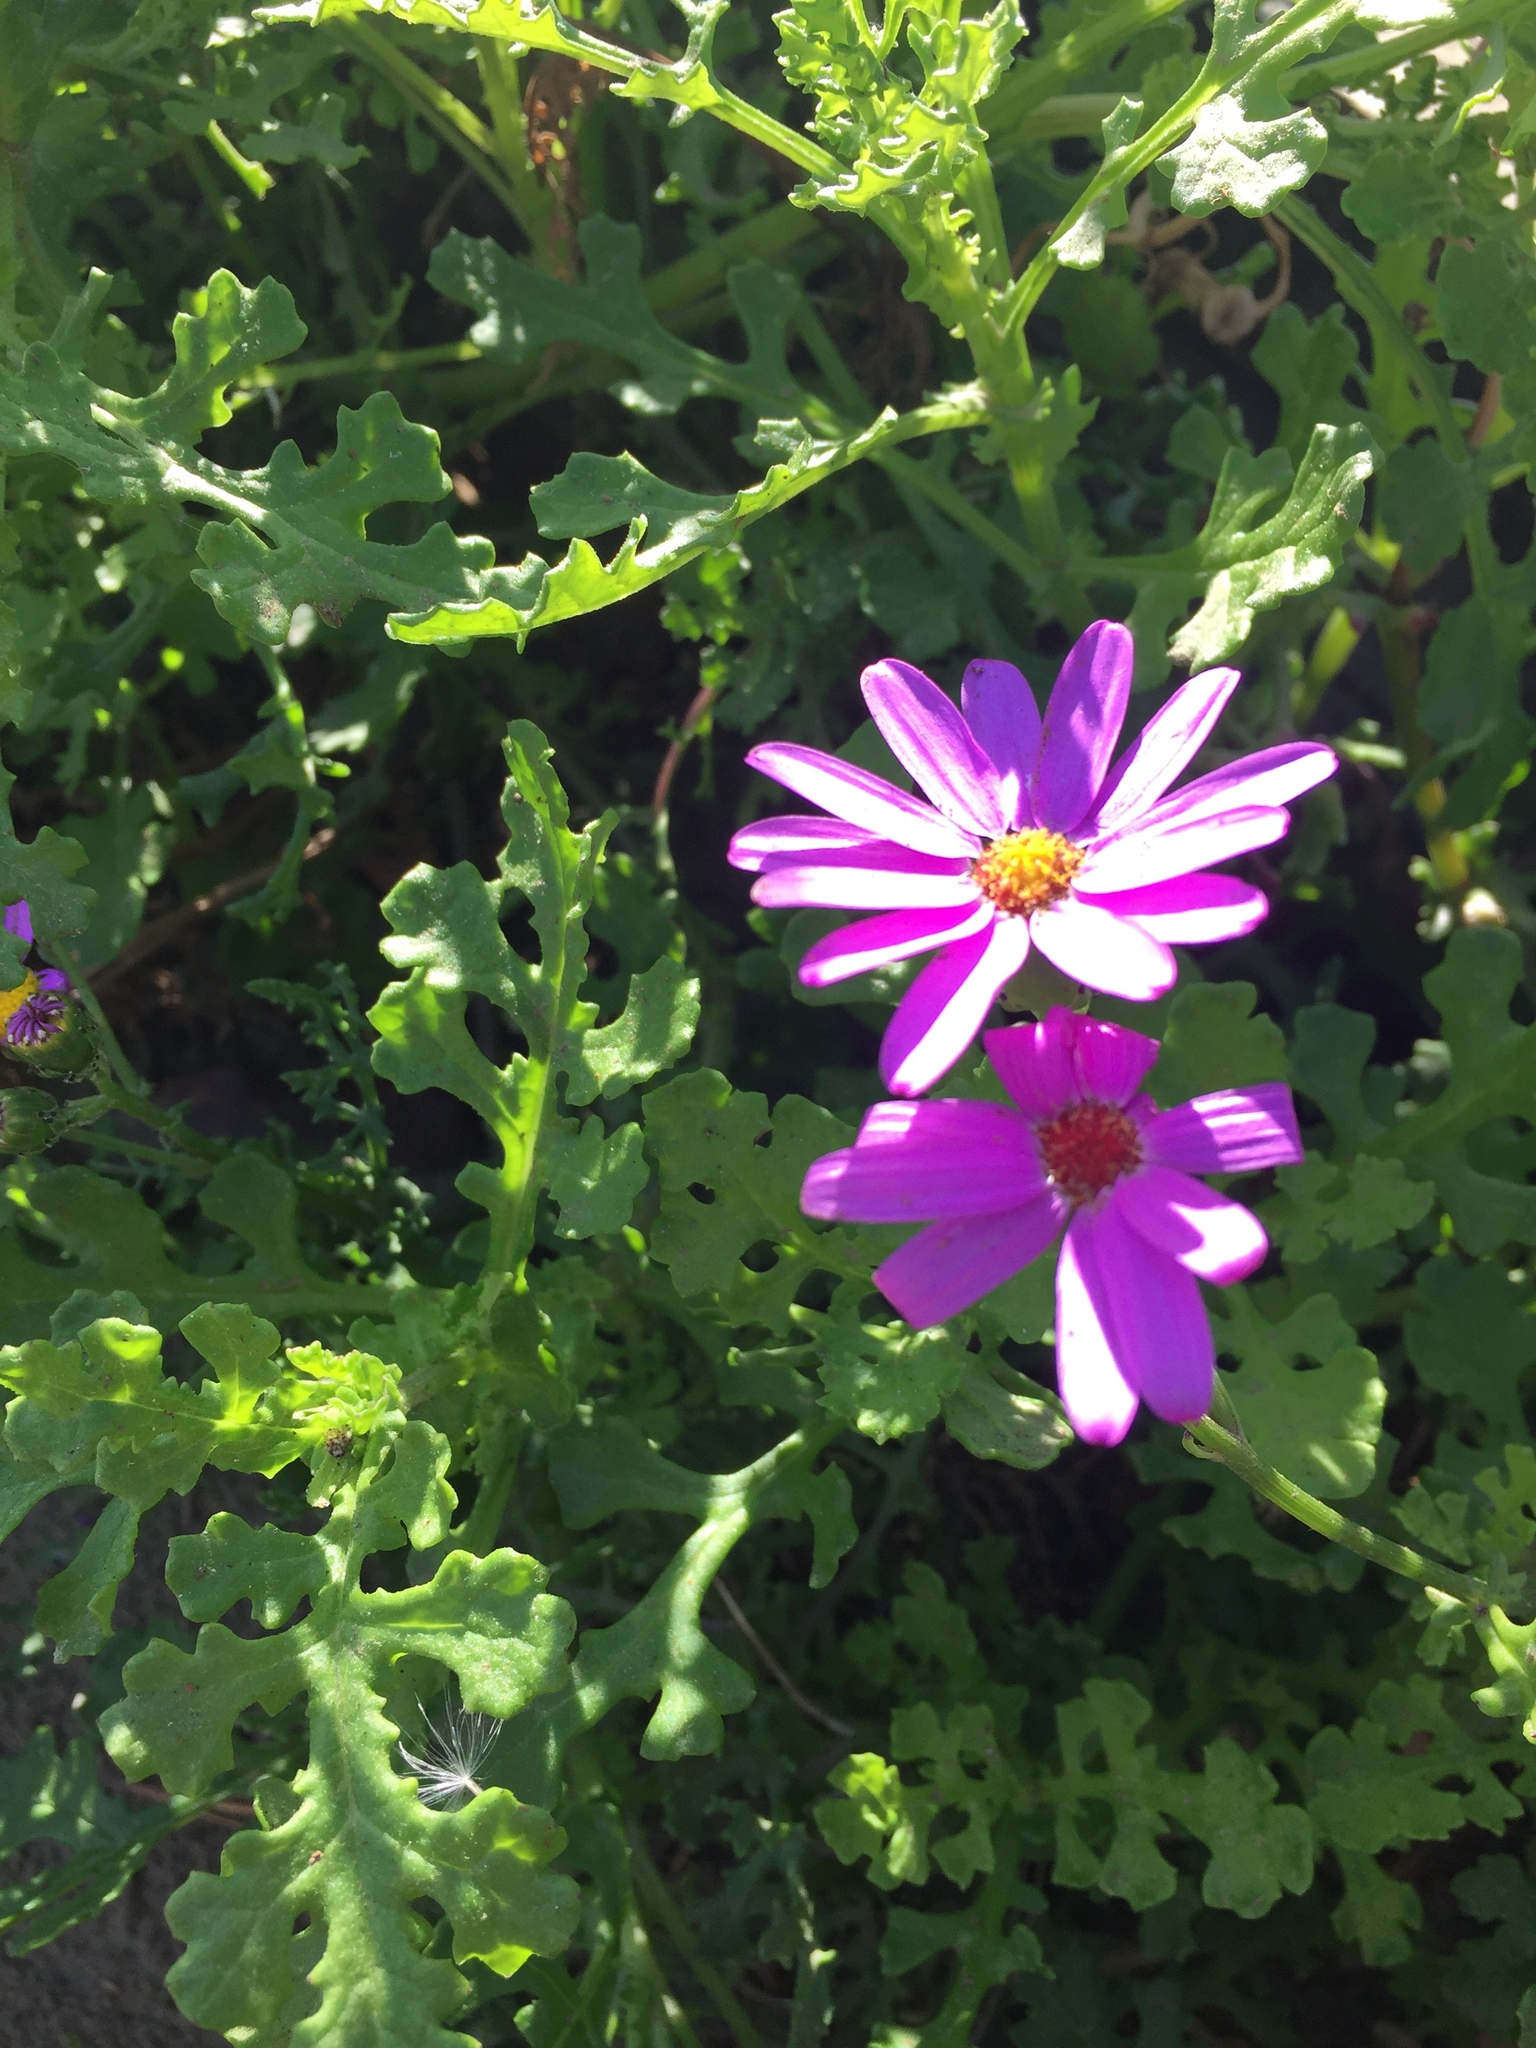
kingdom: Plantae
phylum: Tracheophyta
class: Magnoliopsida
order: Asterales
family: Asteraceae
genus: Senecio
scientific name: Senecio elegans
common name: Purple groundsel
